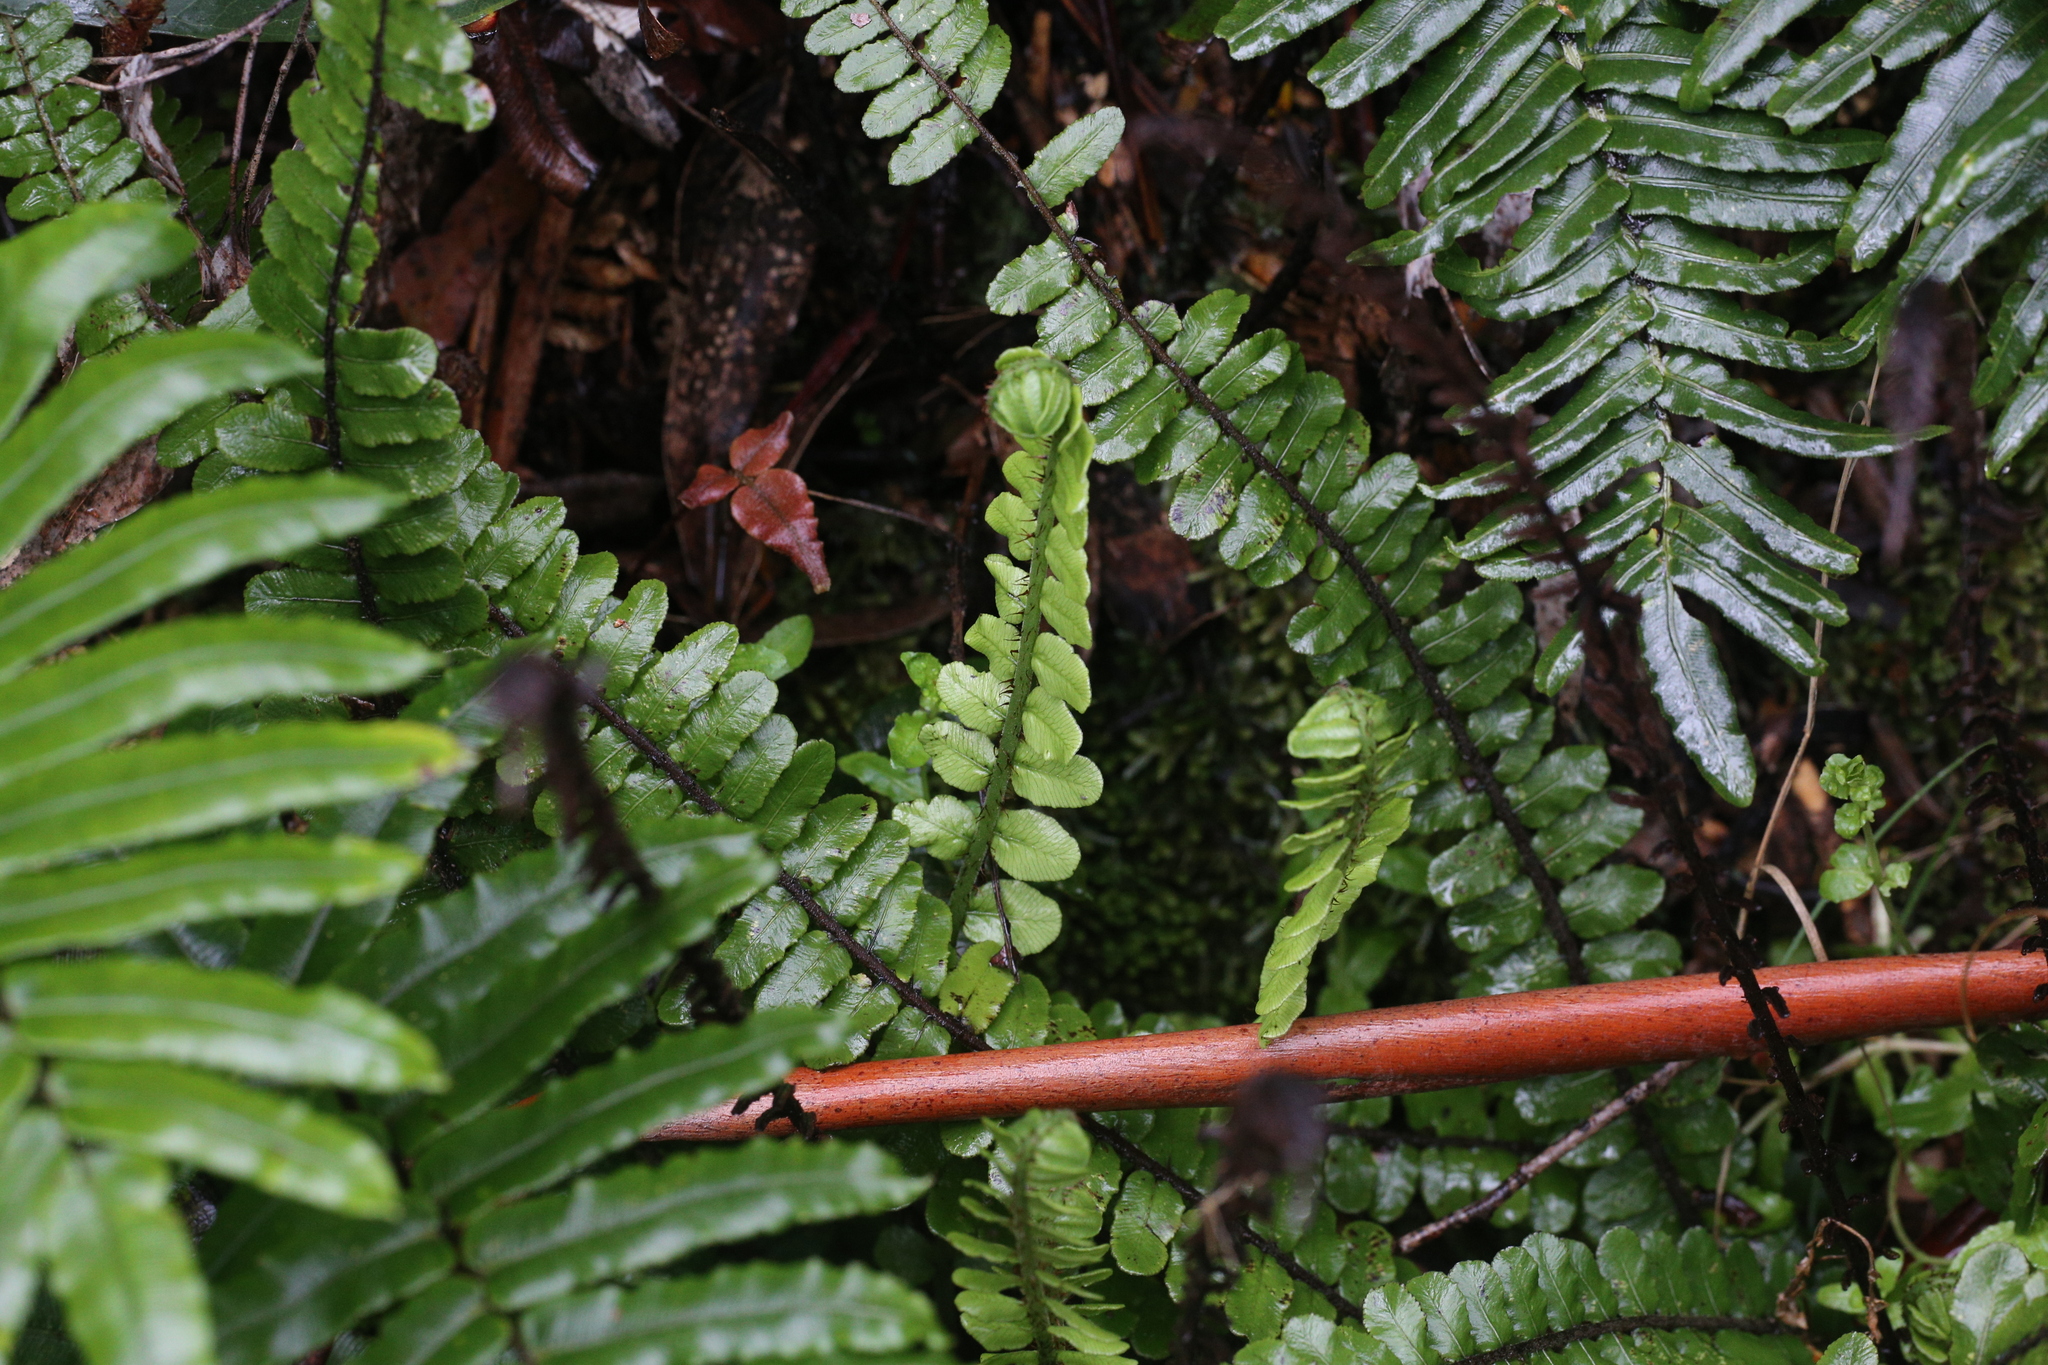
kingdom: Plantae
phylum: Tracheophyta
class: Polypodiopsida
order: Polypodiales
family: Blechnaceae
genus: Cranfillia
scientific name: Cranfillia fluviatilis
